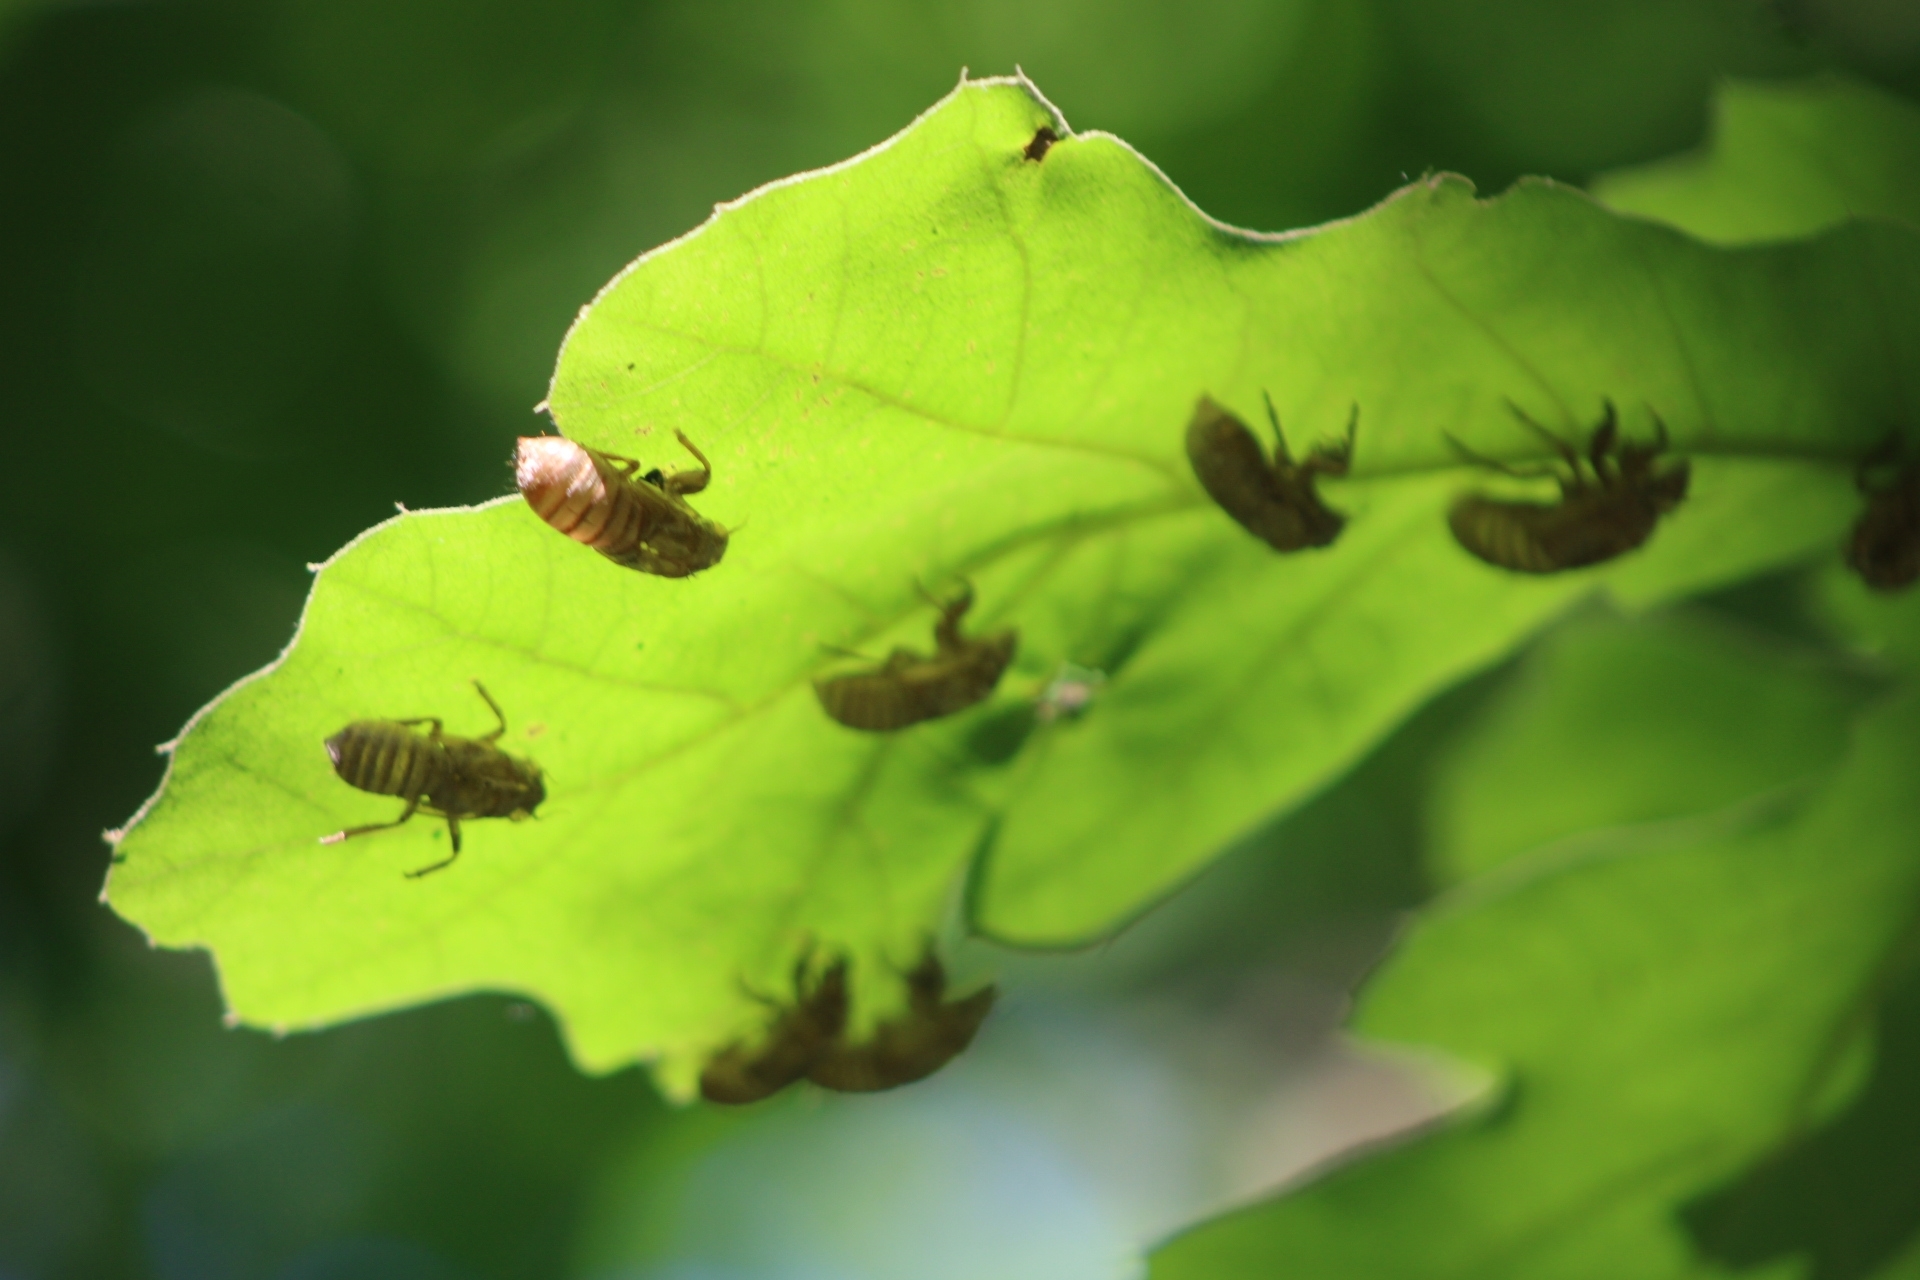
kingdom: Animalia
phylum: Arthropoda
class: Insecta
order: Hemiptera
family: Cicadidae
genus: Magicicada
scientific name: Magicicada
